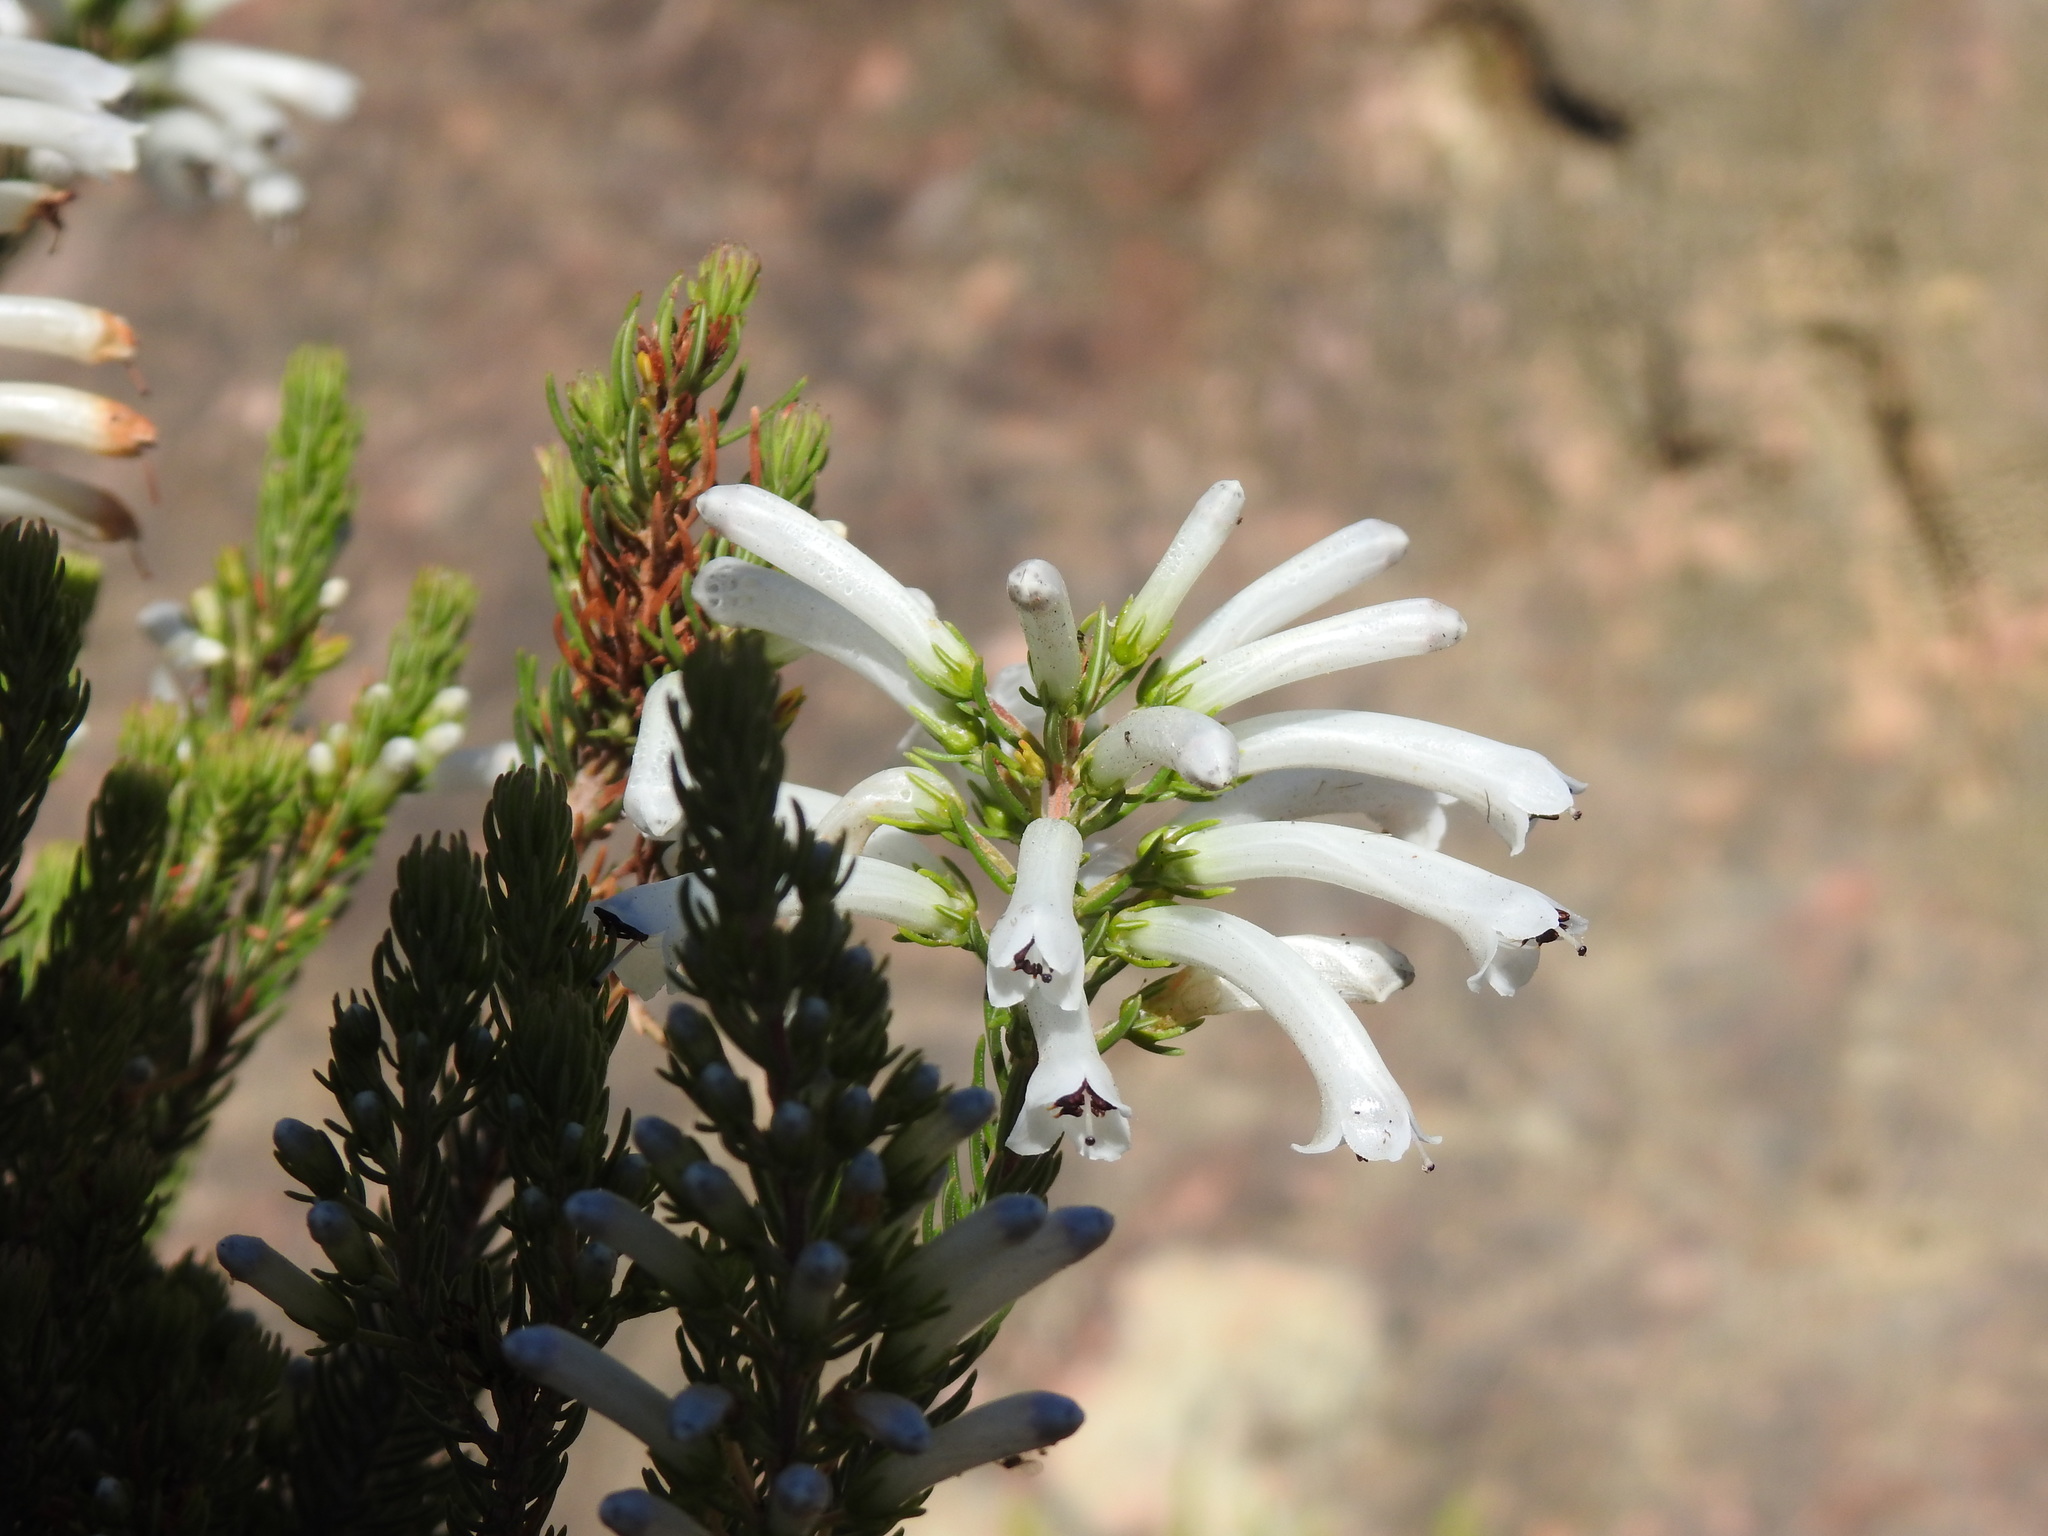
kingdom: Plantae
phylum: Tracheophyta
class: Magnoliopsida
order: Ericales
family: Ericaceae
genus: Erica
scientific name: Erica pinea
